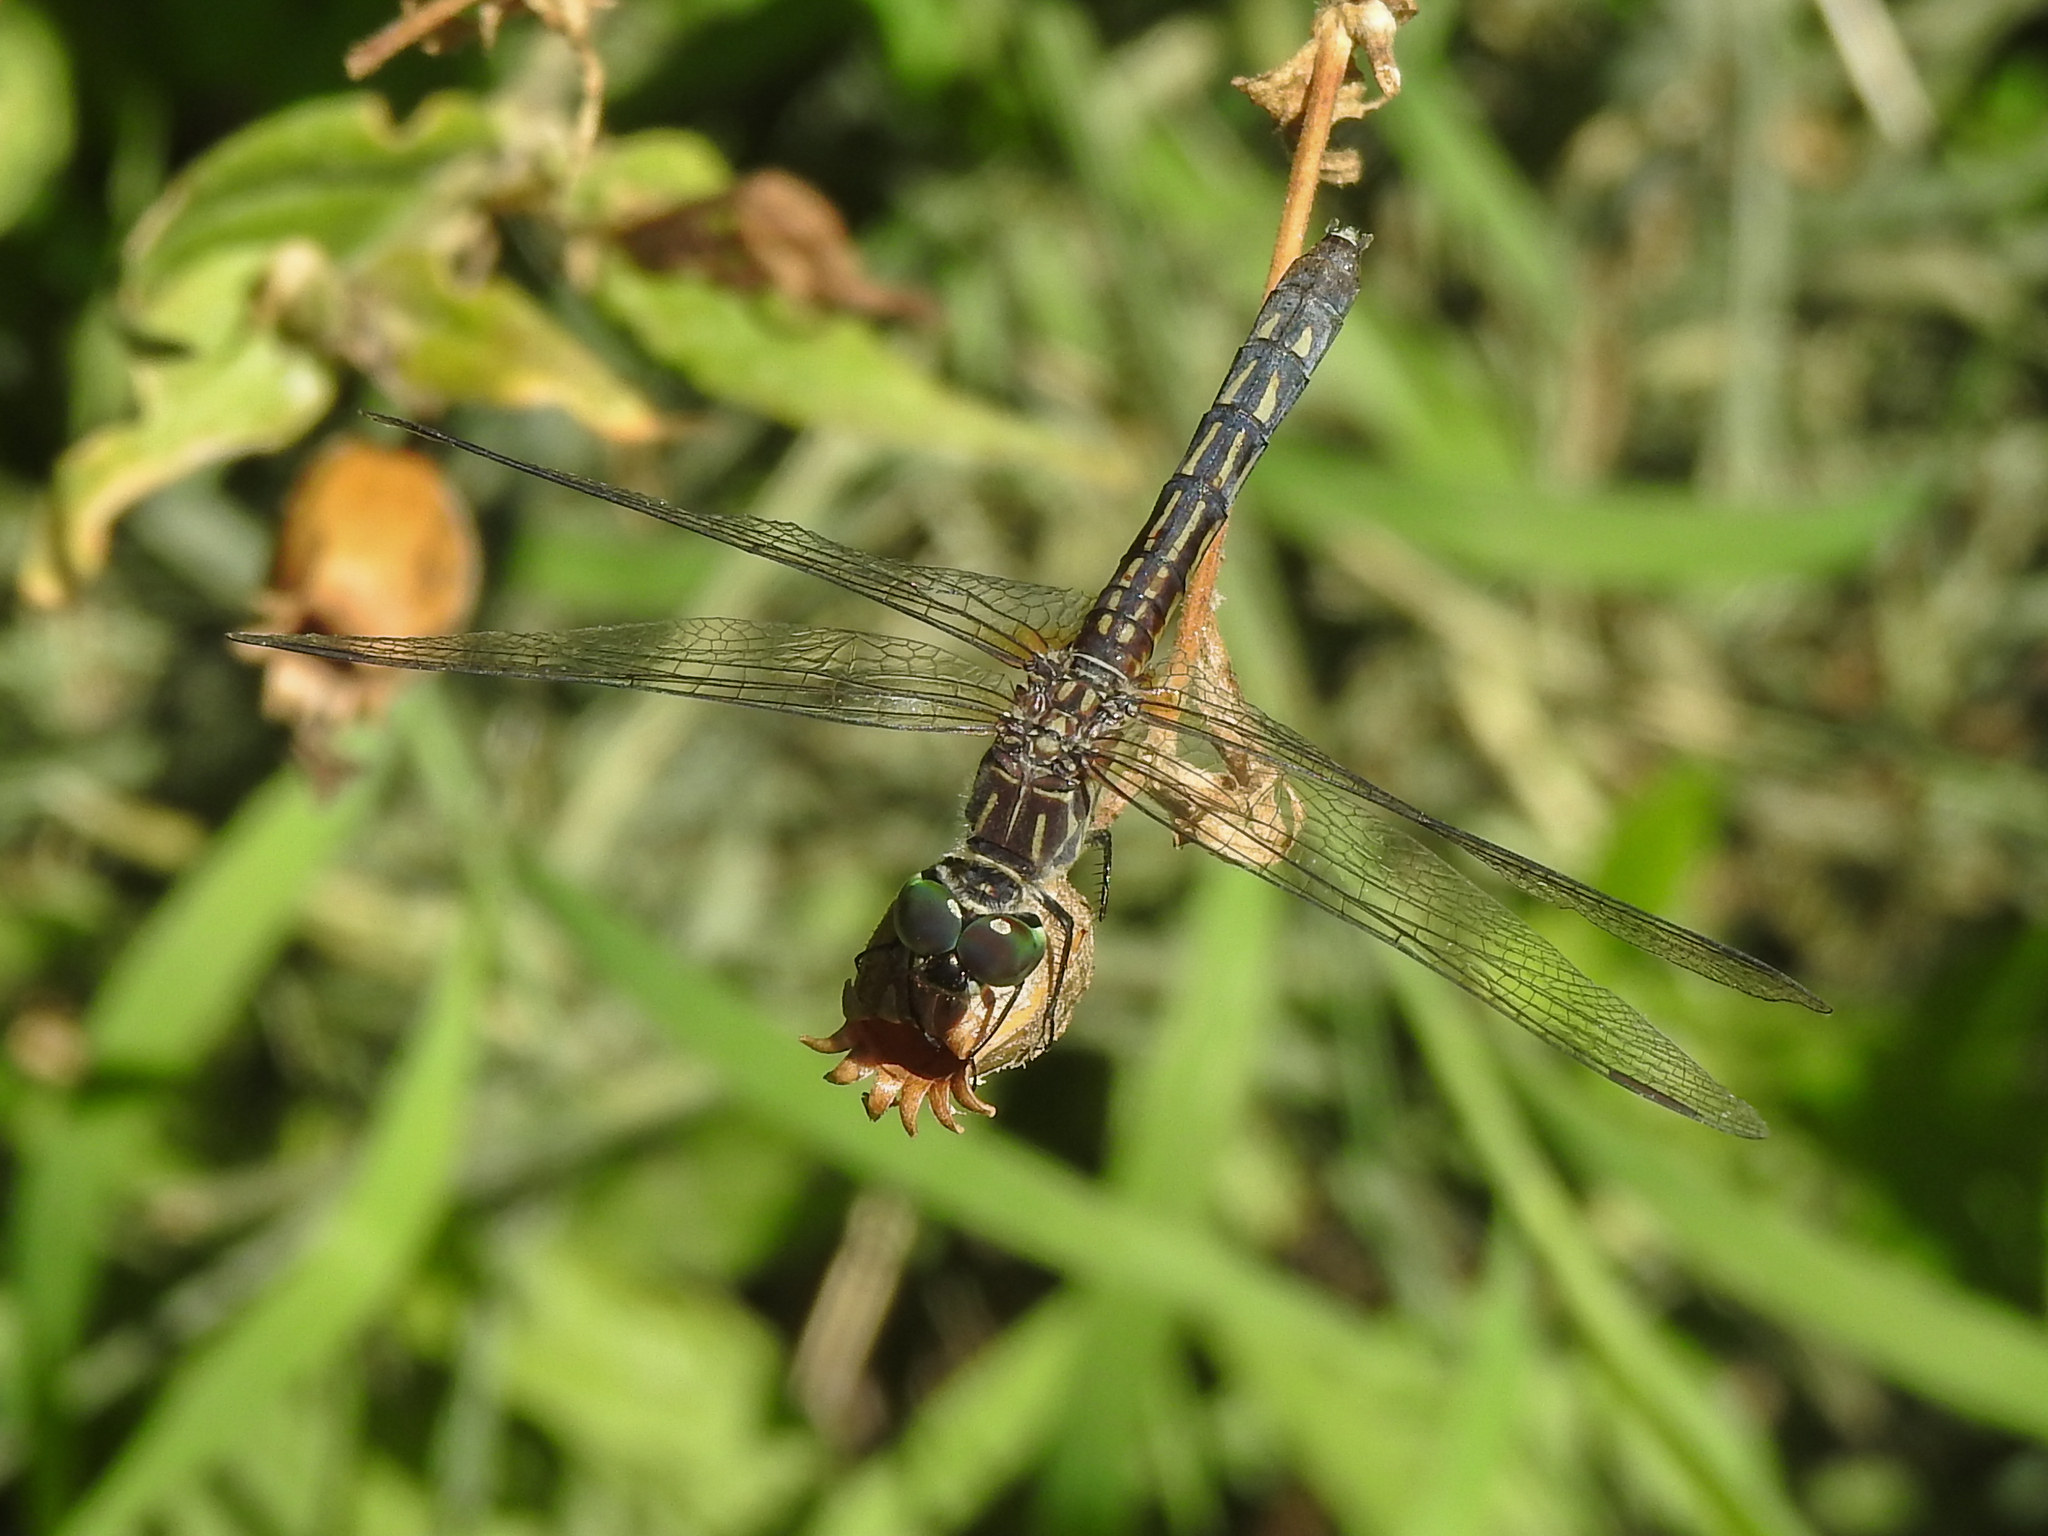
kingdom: Animalia
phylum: Arthropoda
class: Insecta
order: Odonata
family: Libellulidae
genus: Pachydiplax
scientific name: Pachydiplax longipennis
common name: Blue dasher
